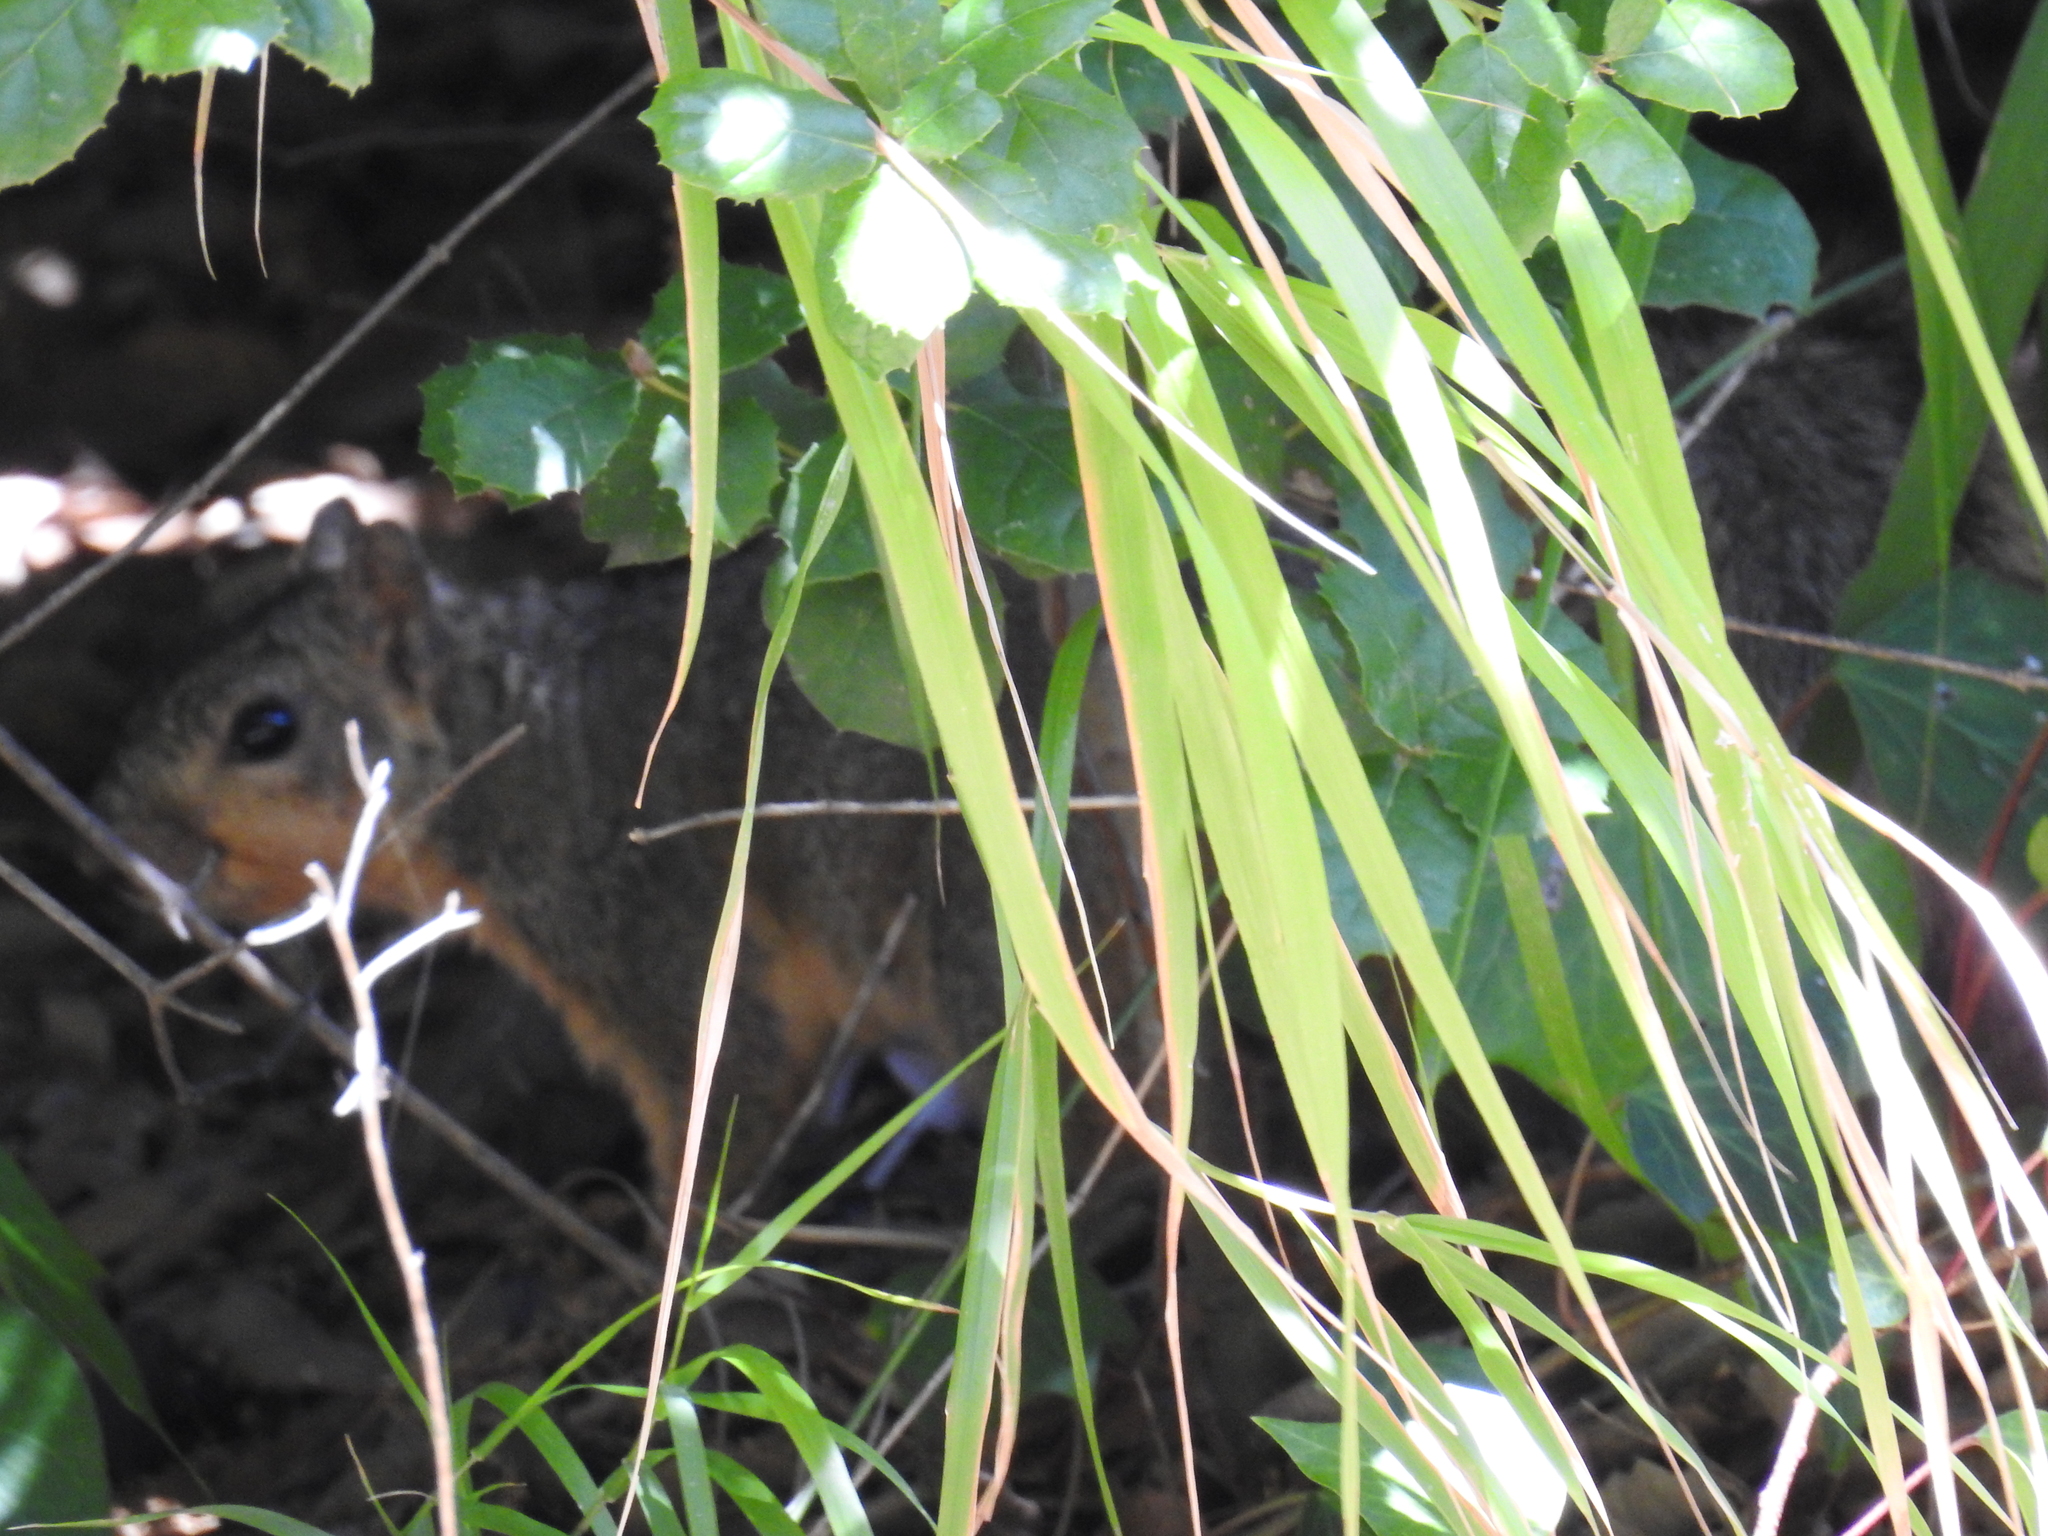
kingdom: Animalia
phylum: Chordata
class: Mammalia
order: Rodentia
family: Sciuridae
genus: Sciurus
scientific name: Sciurus niger
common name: Fox squirrel
